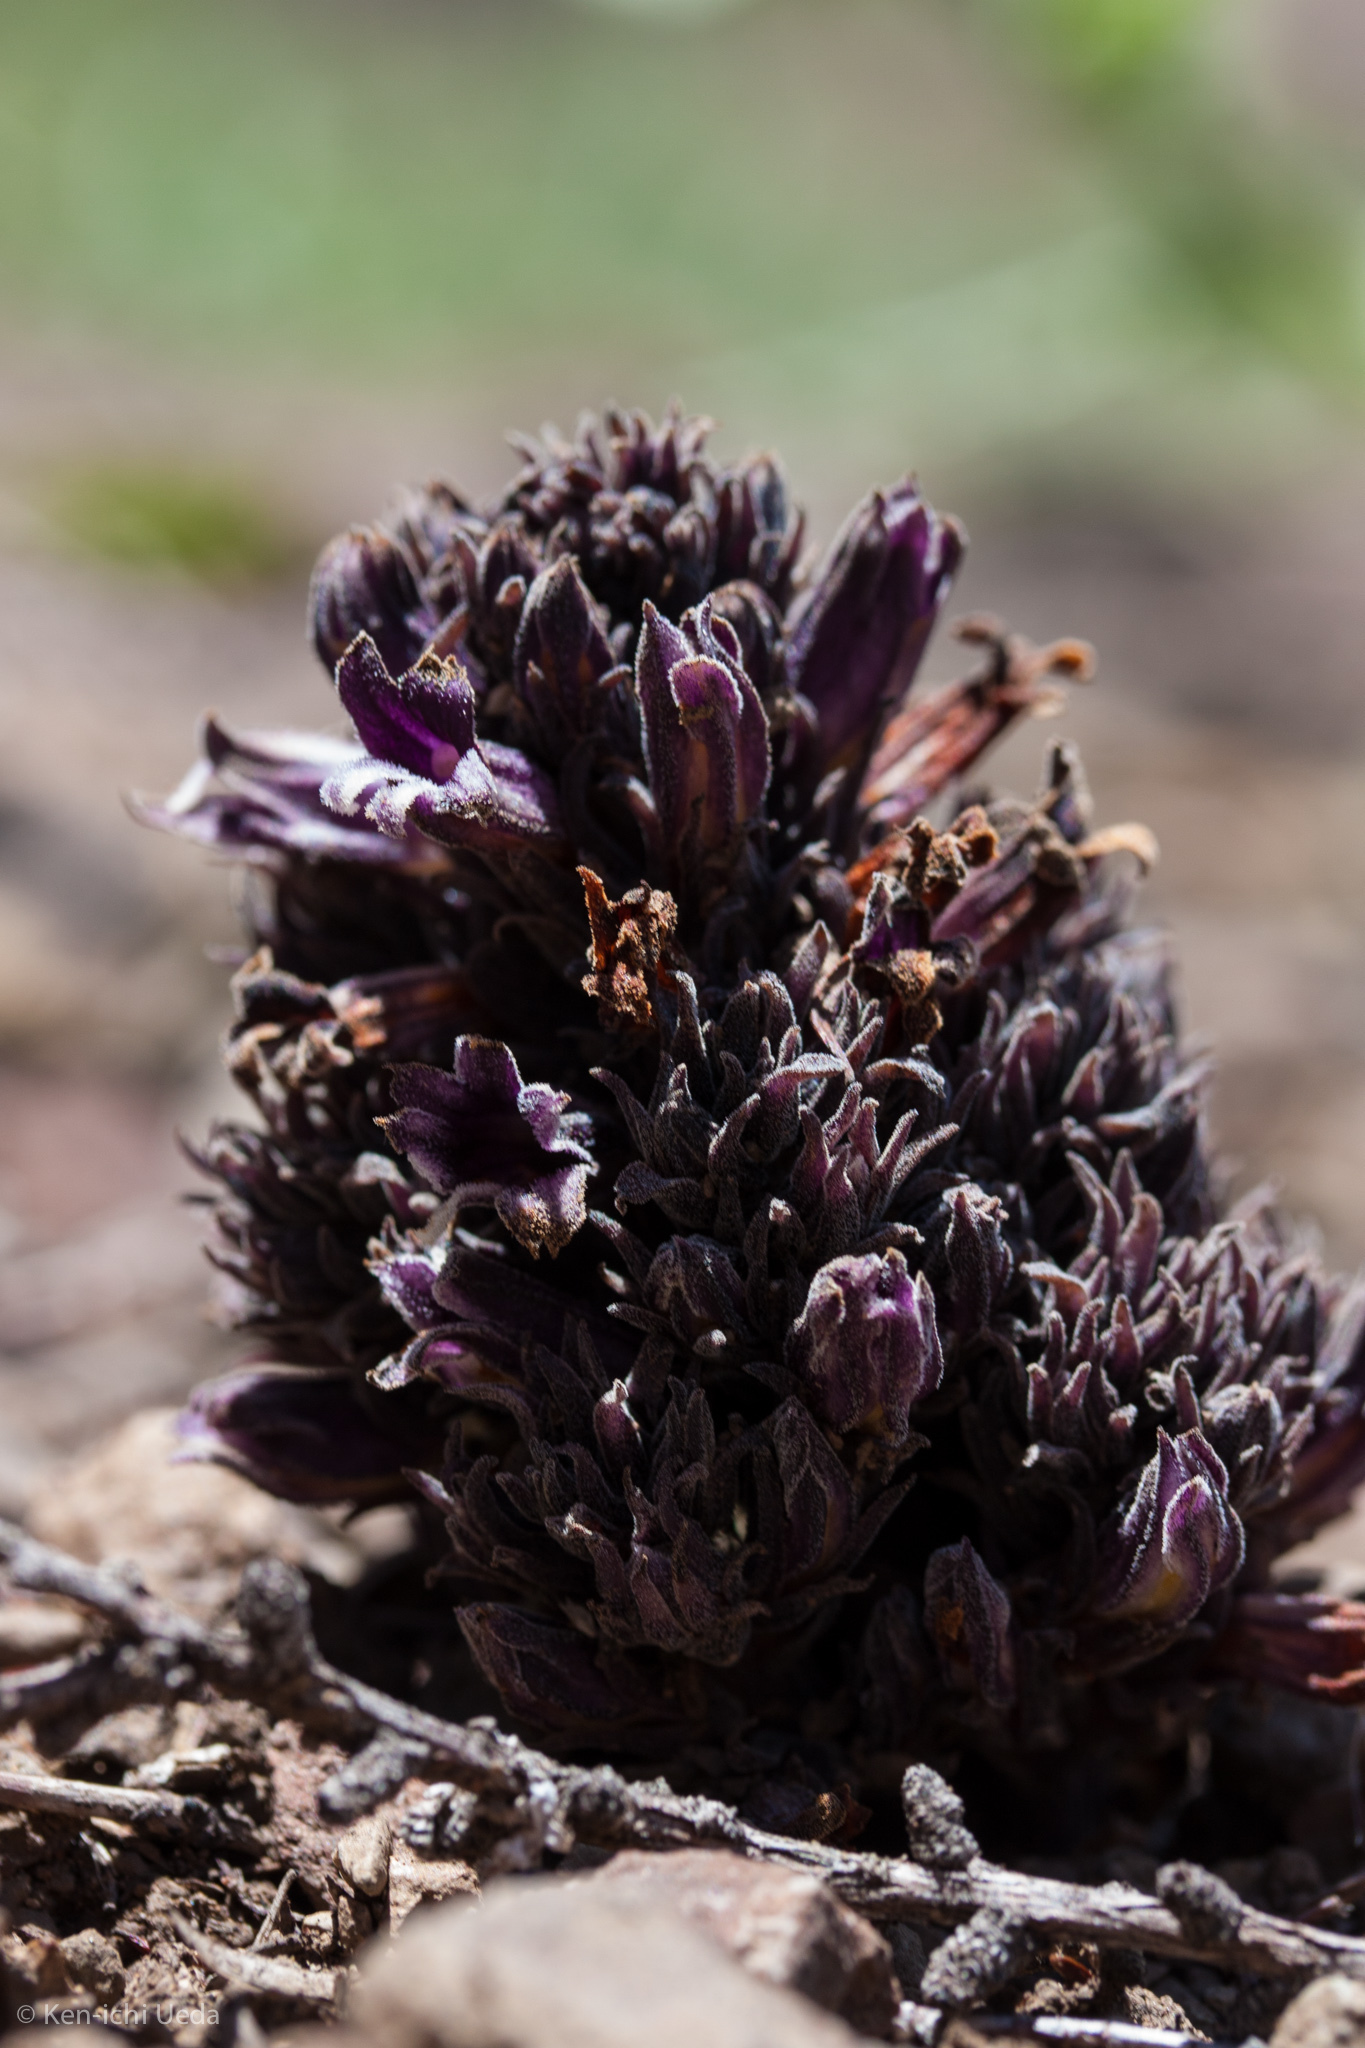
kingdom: Plantae
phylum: Tracheophyta
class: Magnoliopsida
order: Lamiales
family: Orobanchaceae
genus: Aphyllon
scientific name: Aphyllon tuberosum
